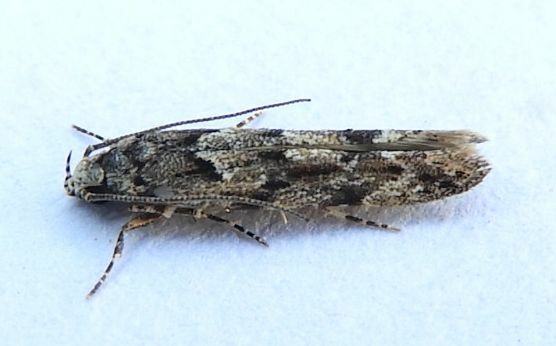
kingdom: Animalia
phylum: Arthropoda
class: Insecta
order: Lepidoptera
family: Gelechiidae
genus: Sinoe
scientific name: Sinoe chambersi
